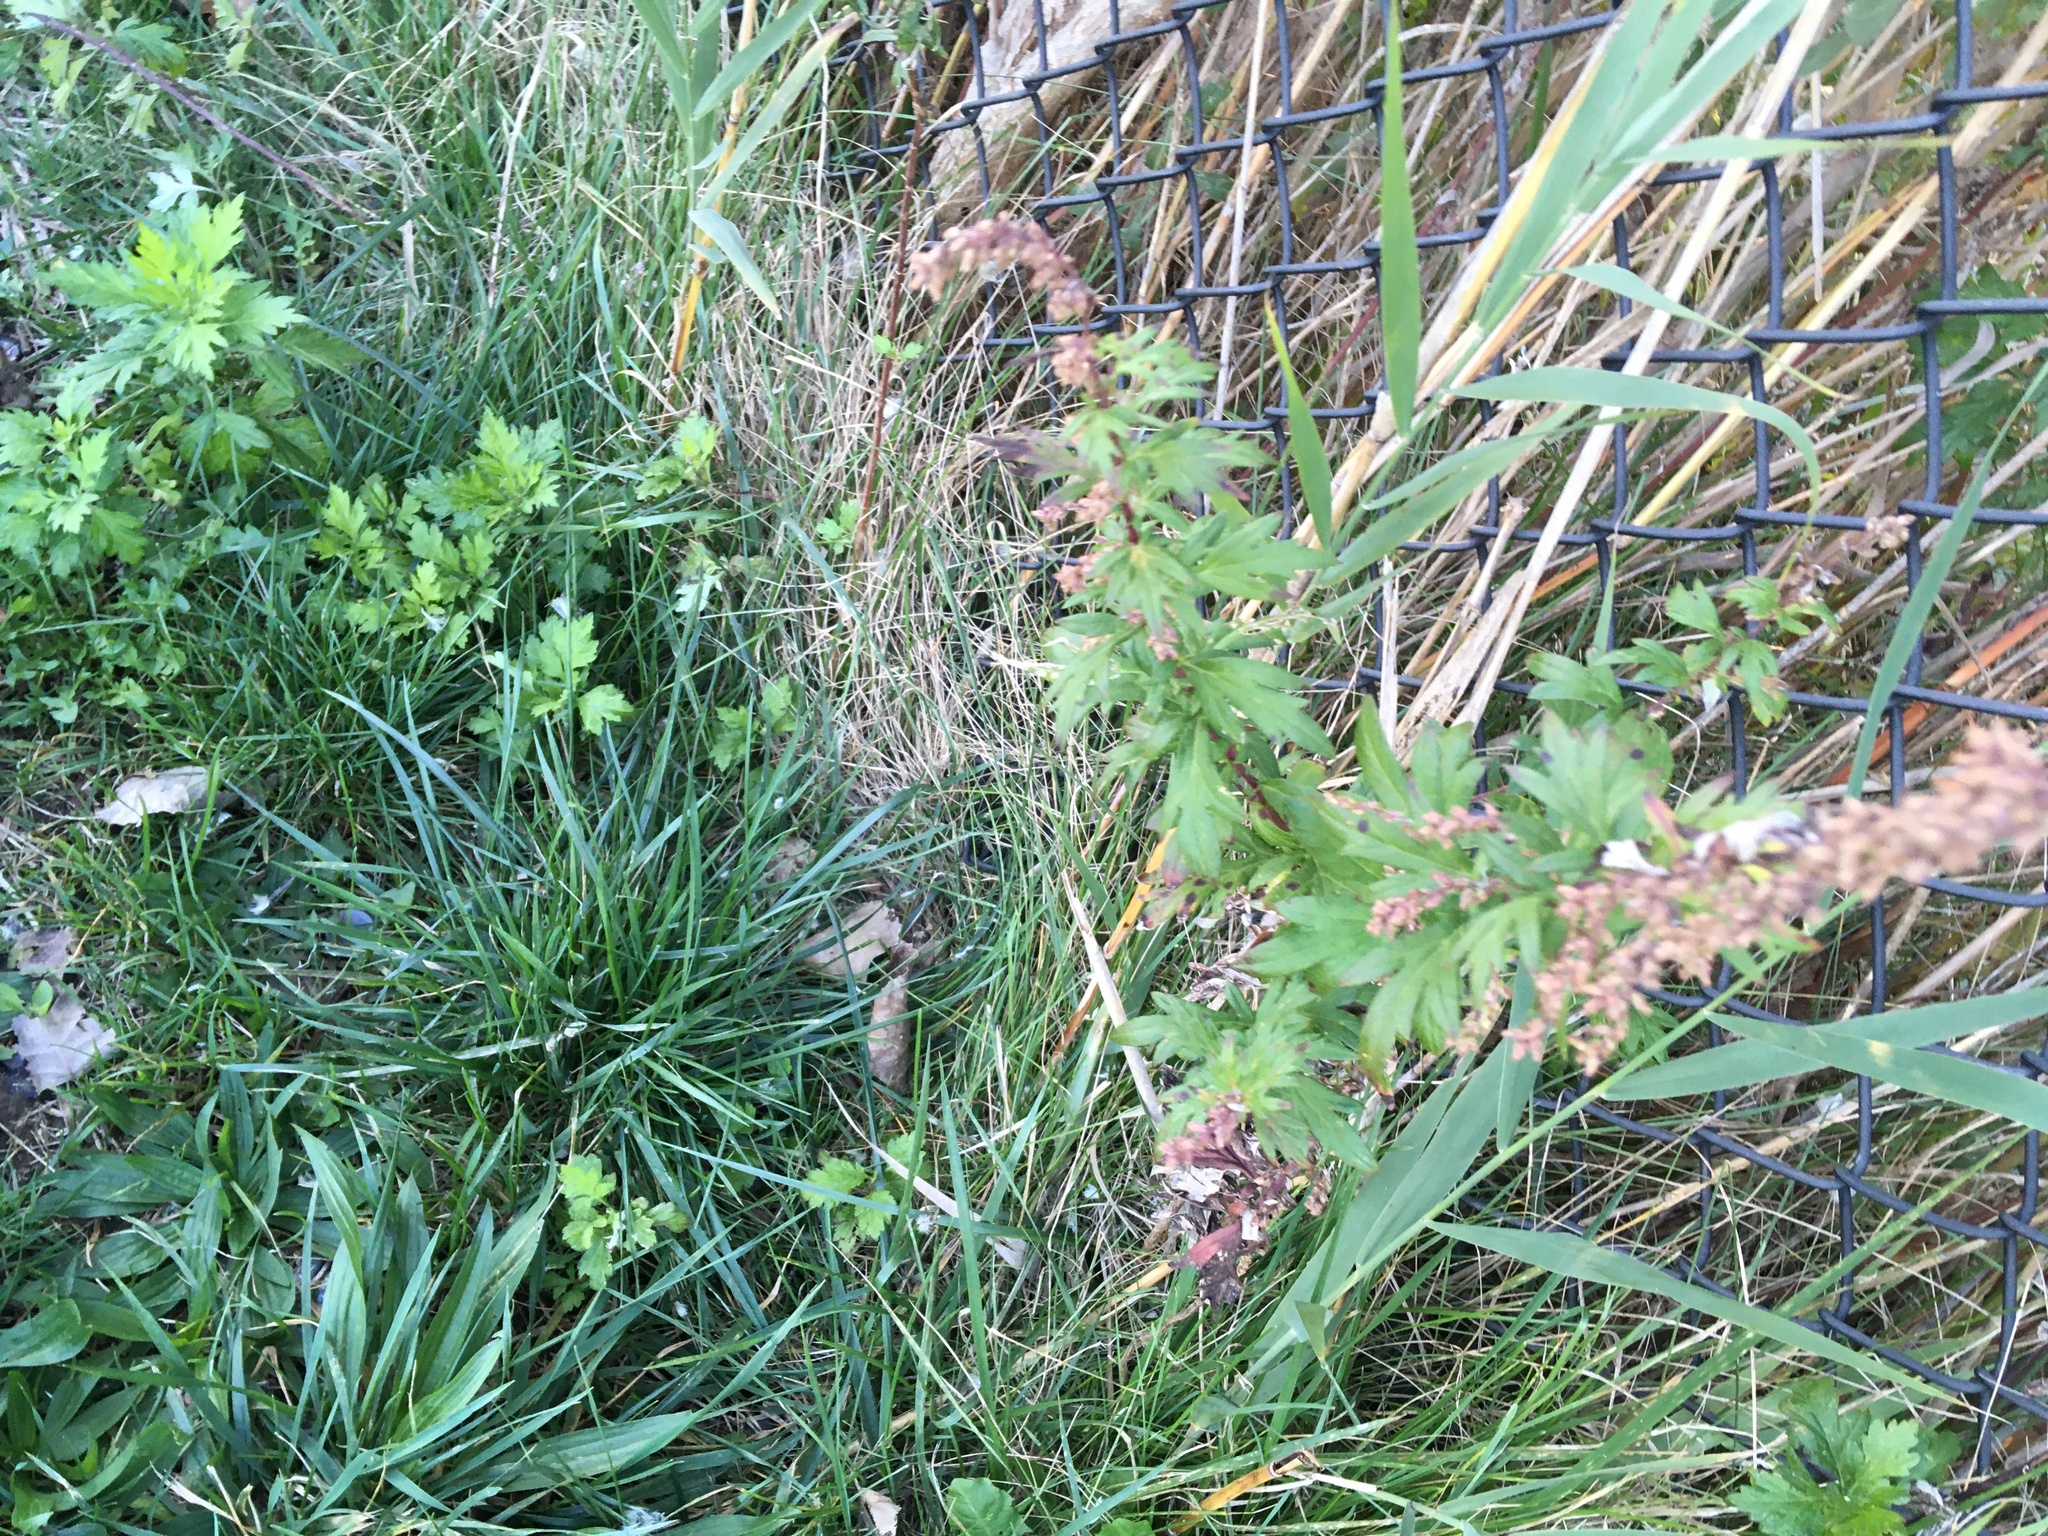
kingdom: Plantae
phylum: Tracheophyta
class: Magnoliopsida
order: Asterales
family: Asteraceae
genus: Artemisia
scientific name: Artemisia vulgaris
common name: Mugwort
